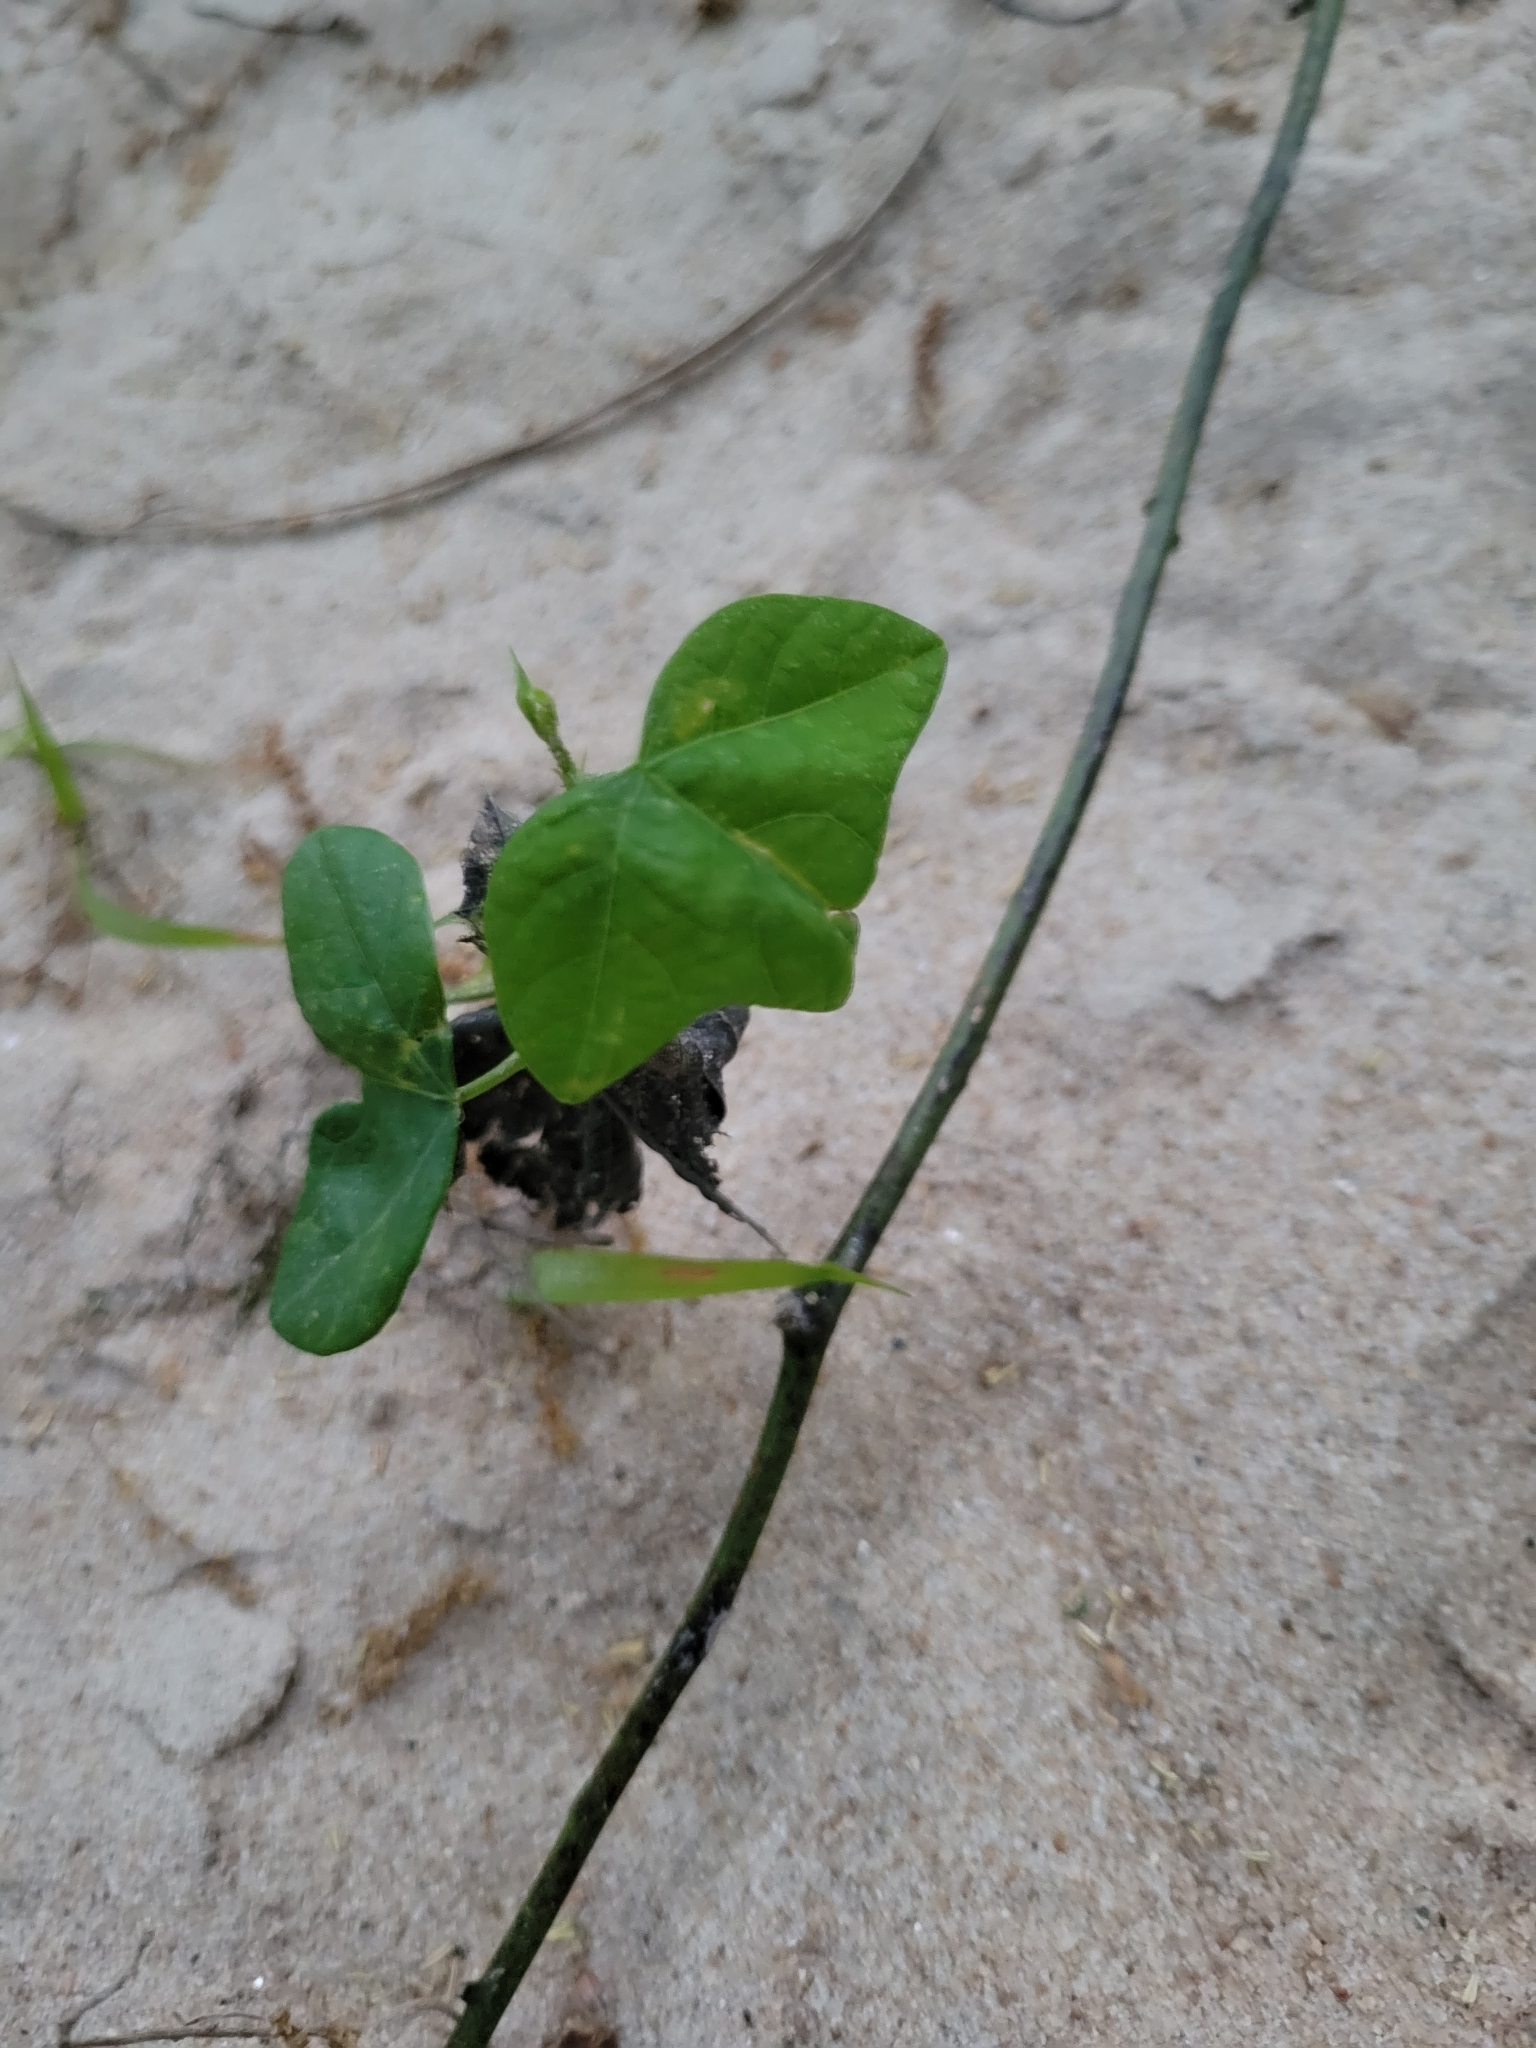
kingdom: Plantae
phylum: Tracheophyta
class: Magnoliopsida
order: Malpighiales
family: Passifloraceae
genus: Passiflora
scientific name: Passiflora lutea
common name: Yellow passionflower
